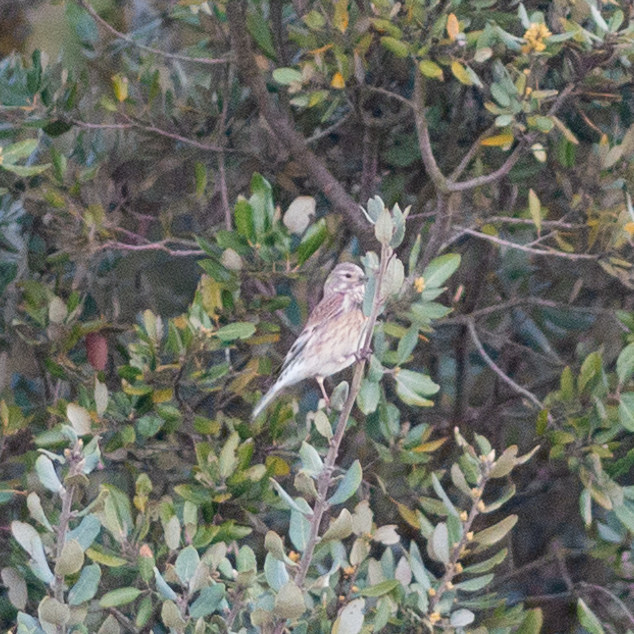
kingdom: Animalia
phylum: Chordata
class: Aves
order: Passeriformes
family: Fringillidae
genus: Linaria
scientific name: Linaria cannabina
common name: Common linnet
